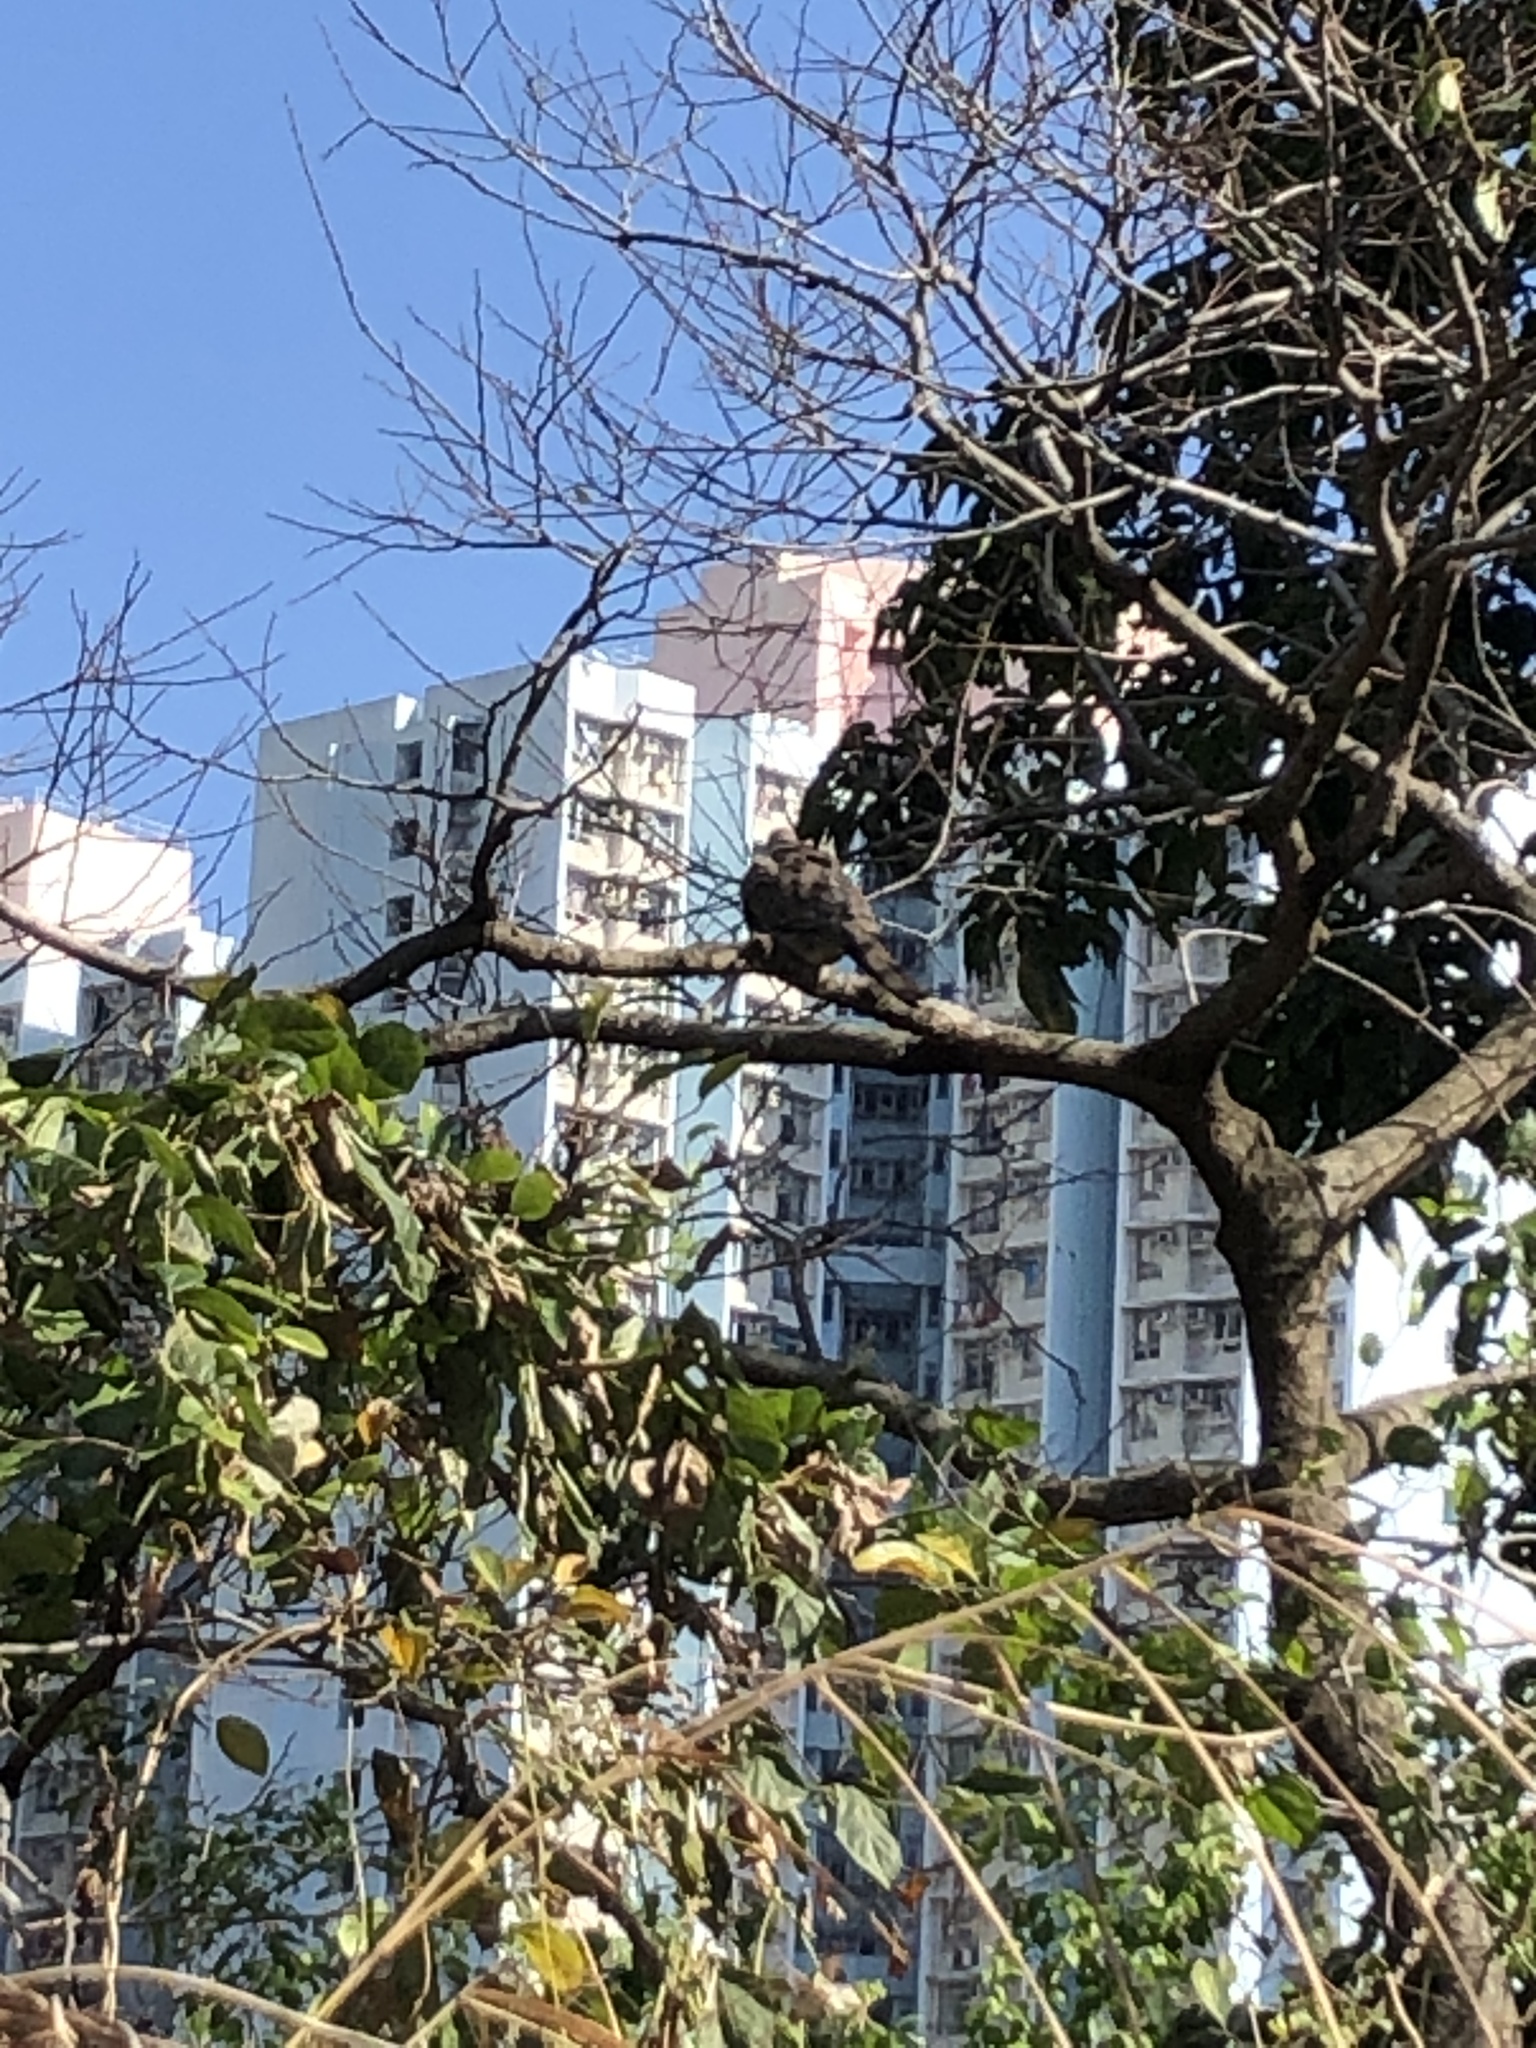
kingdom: Animalia
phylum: Chordata
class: Aves
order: Columbiformes
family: Columbidae
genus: Spilopelia
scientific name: Spilopelia chinensis
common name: Spotted dove
